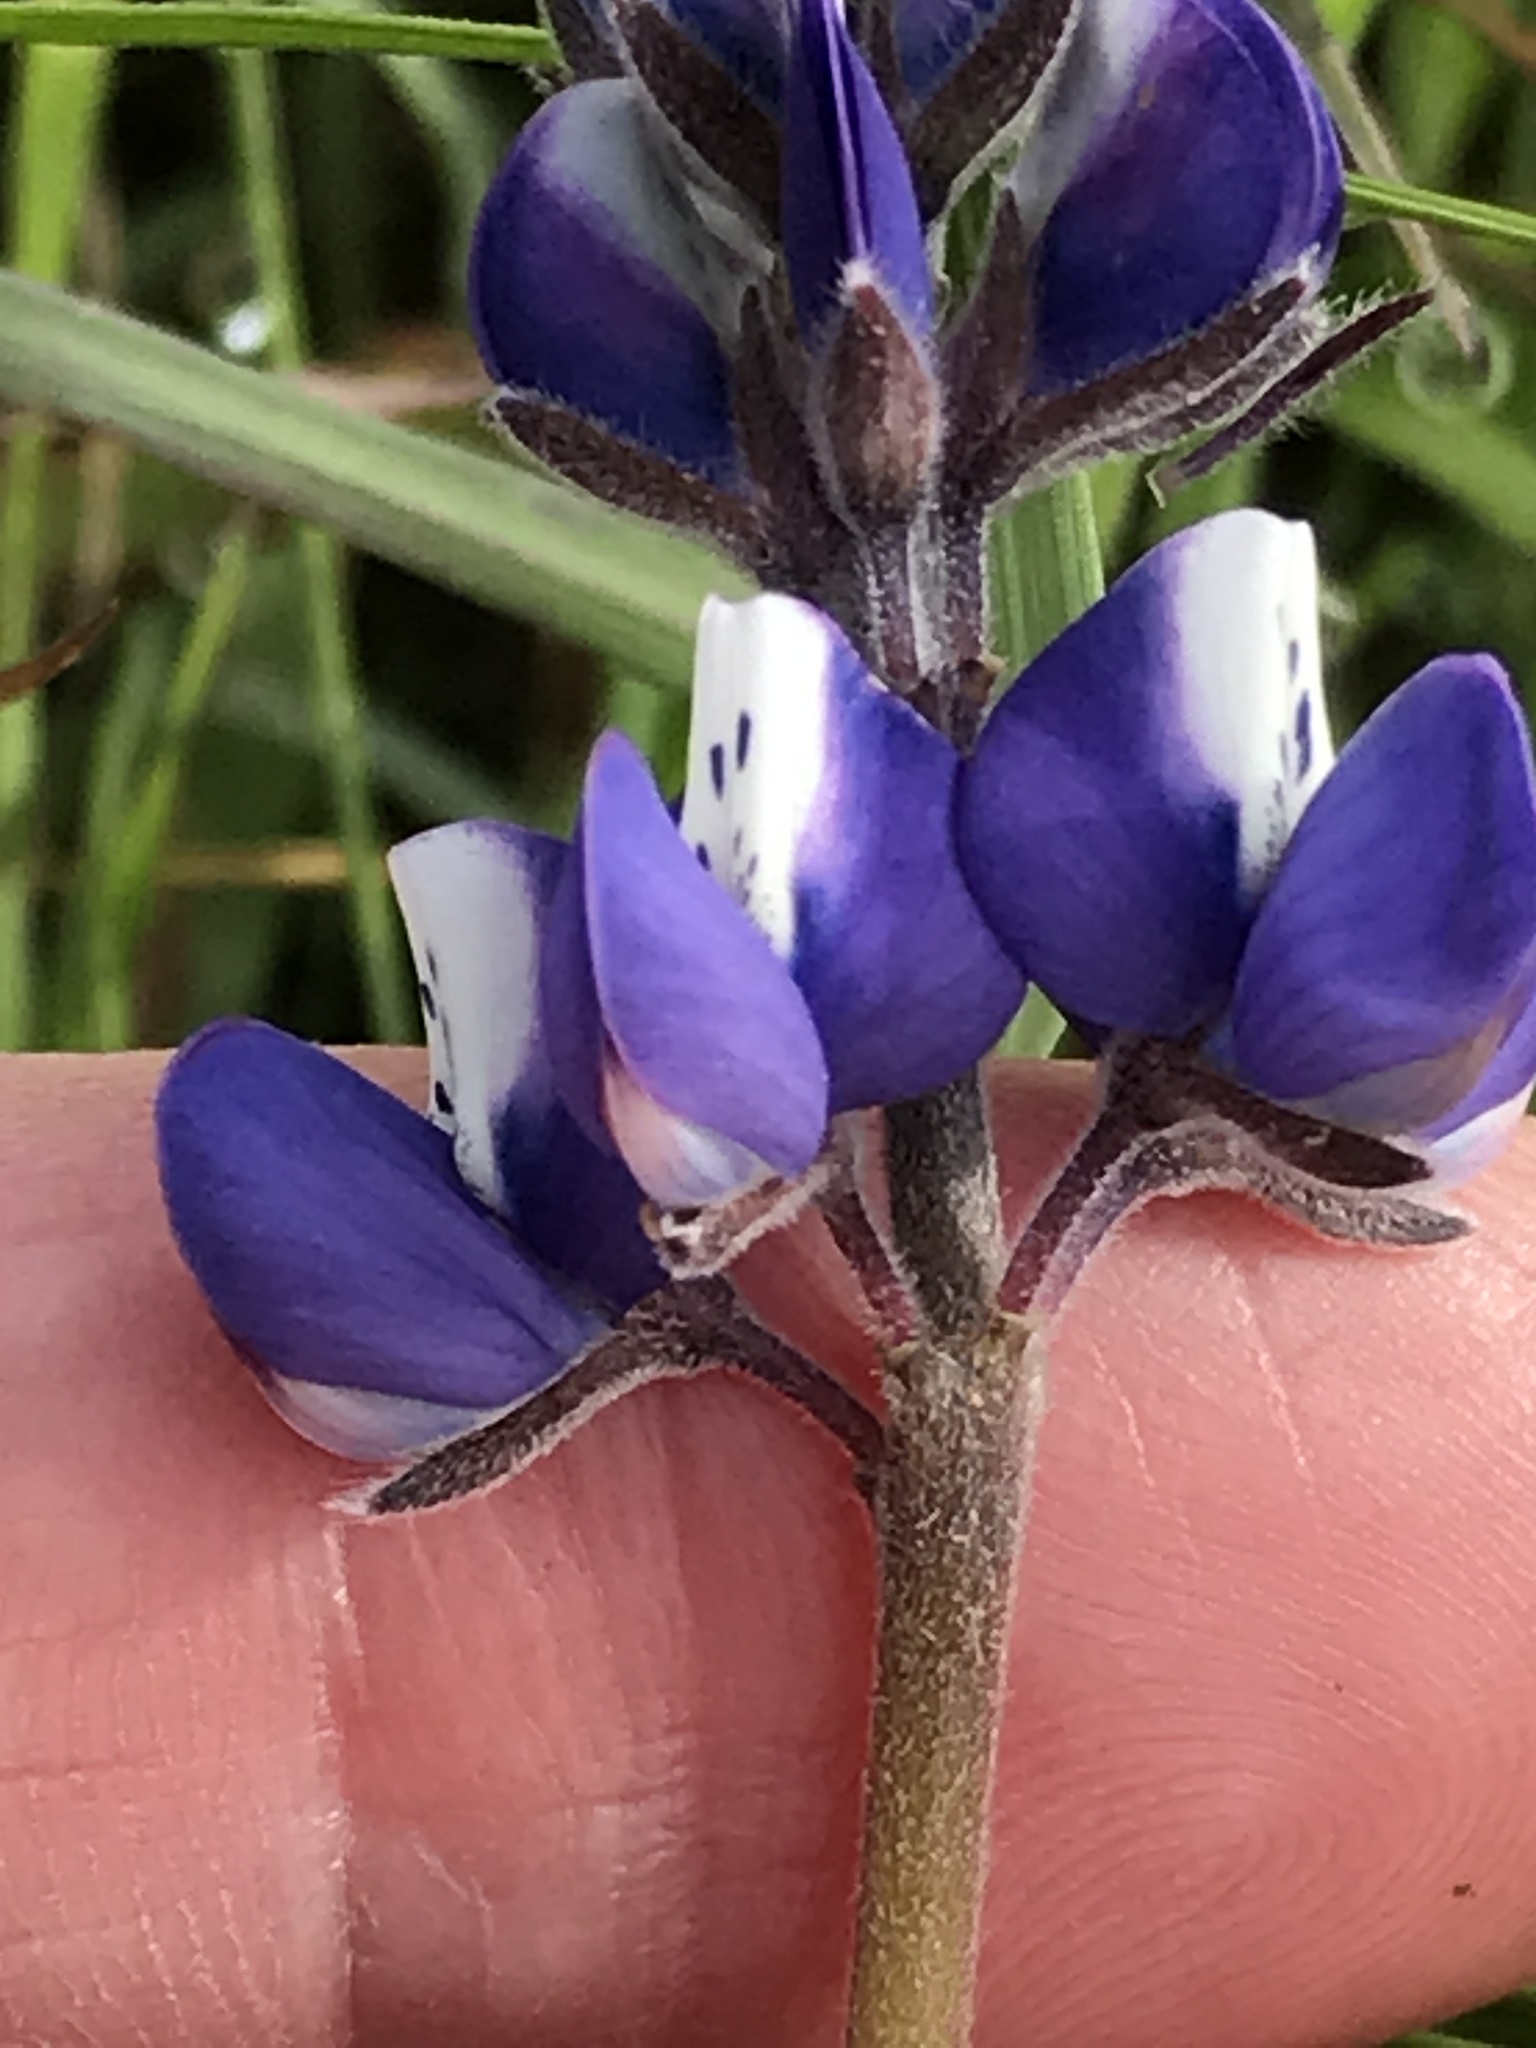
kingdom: Plantae
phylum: Tracheophyta
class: Magnoliopsida
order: Fabales
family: Fabaceae
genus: Lupinus
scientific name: Lupinus nanus
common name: Orean blue lupin
